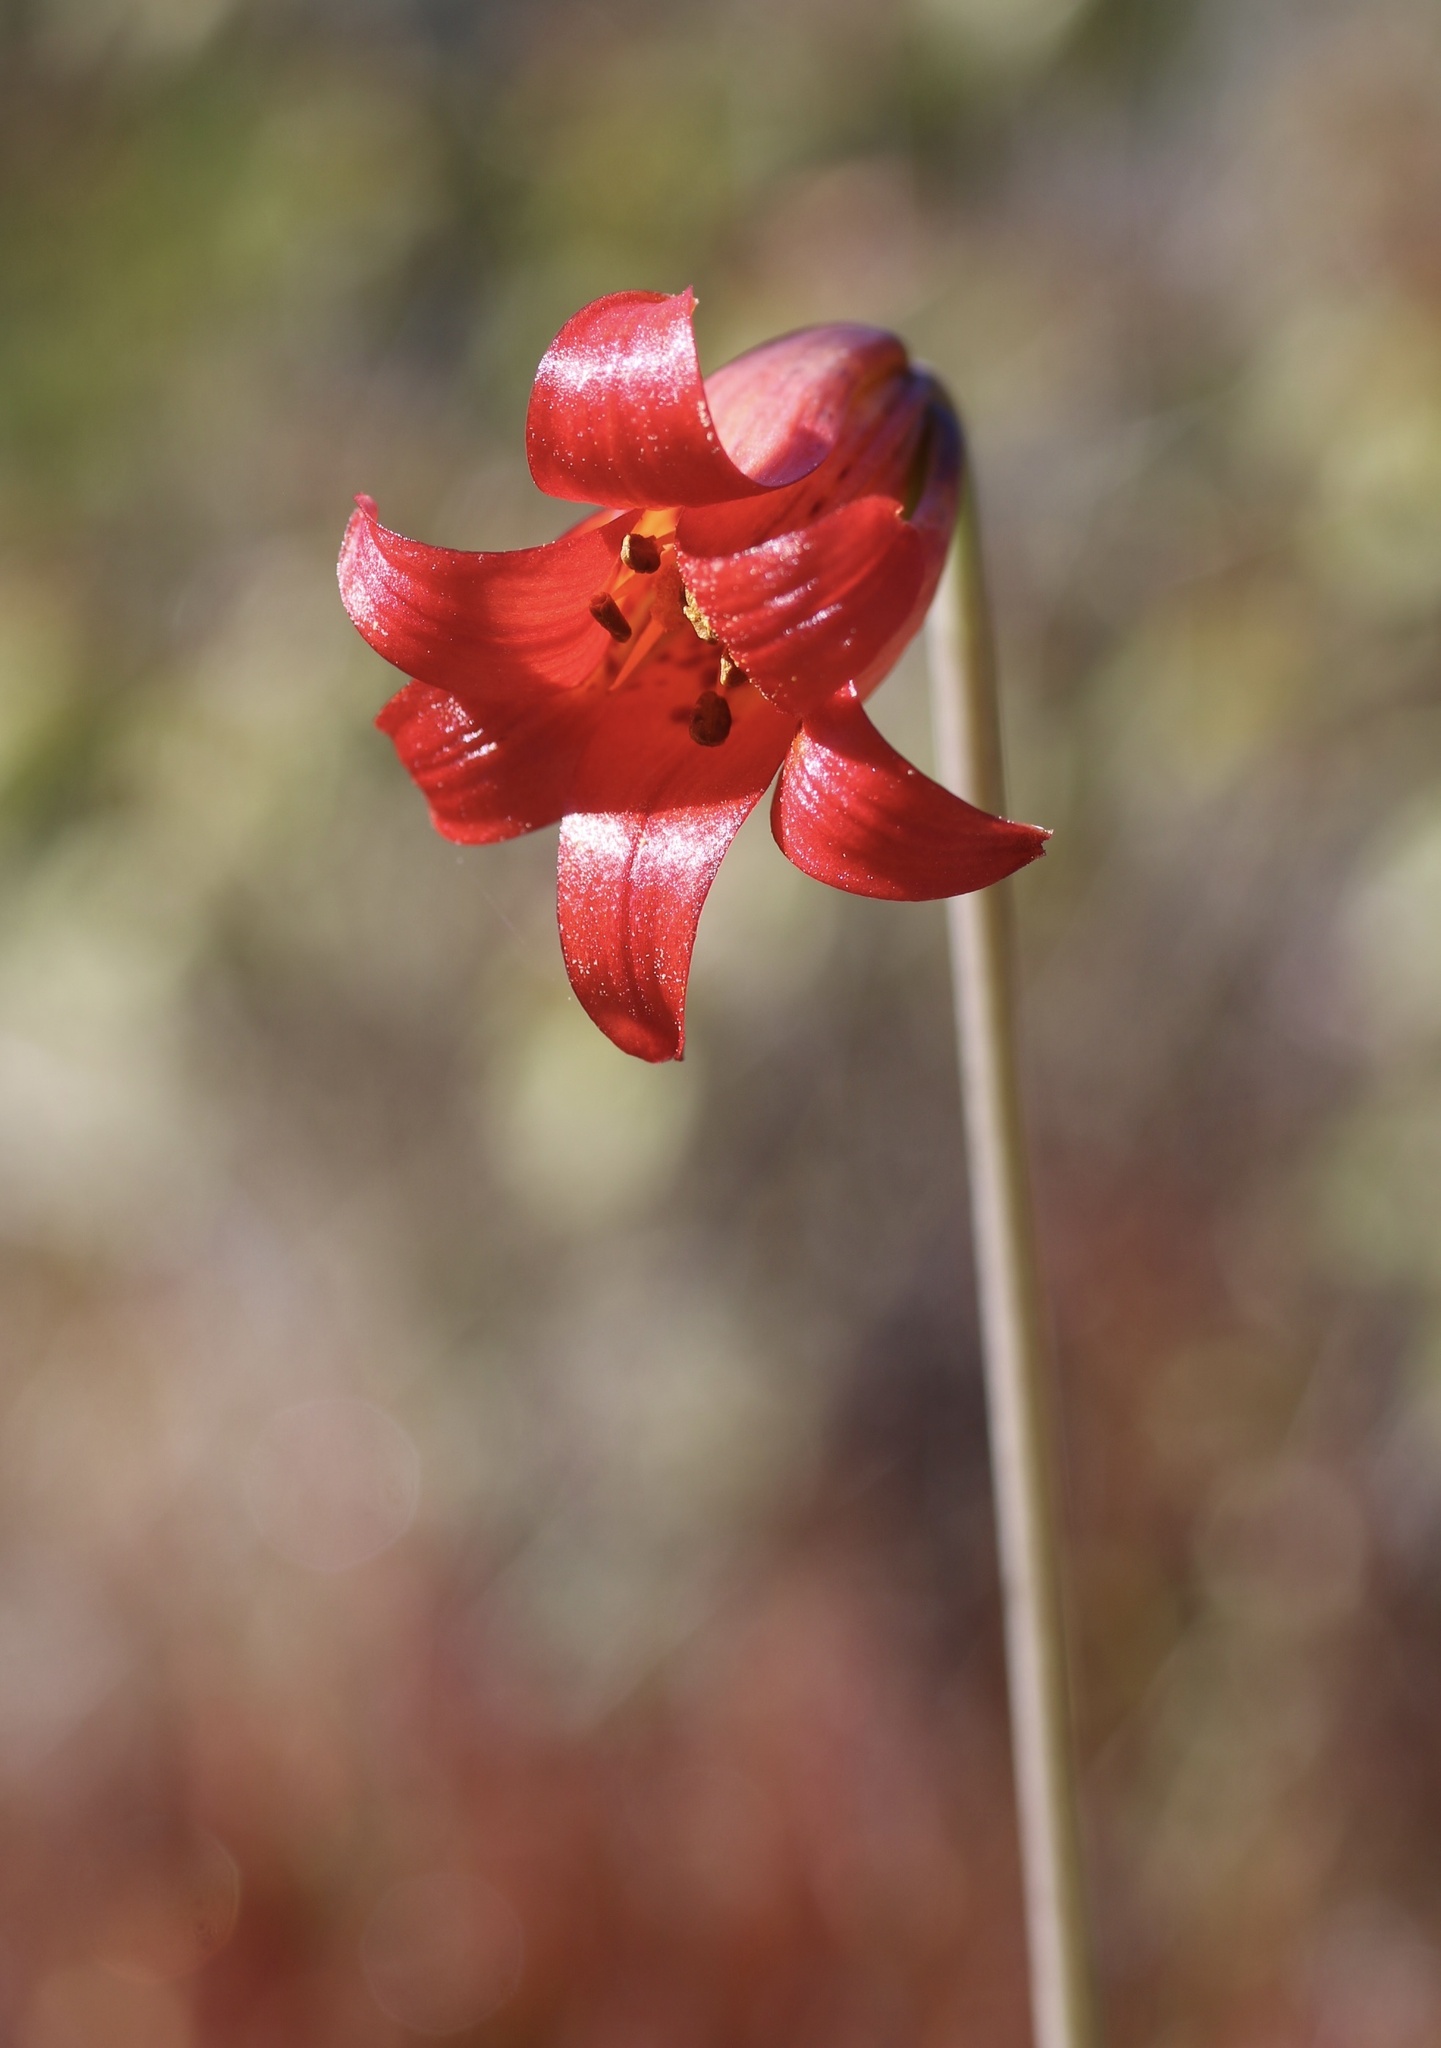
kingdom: Plantae
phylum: Tracheophyta
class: Liliopsida
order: Liliales
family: Liliaceae
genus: Lilium
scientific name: Lilium maritimum
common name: Coastal lily
